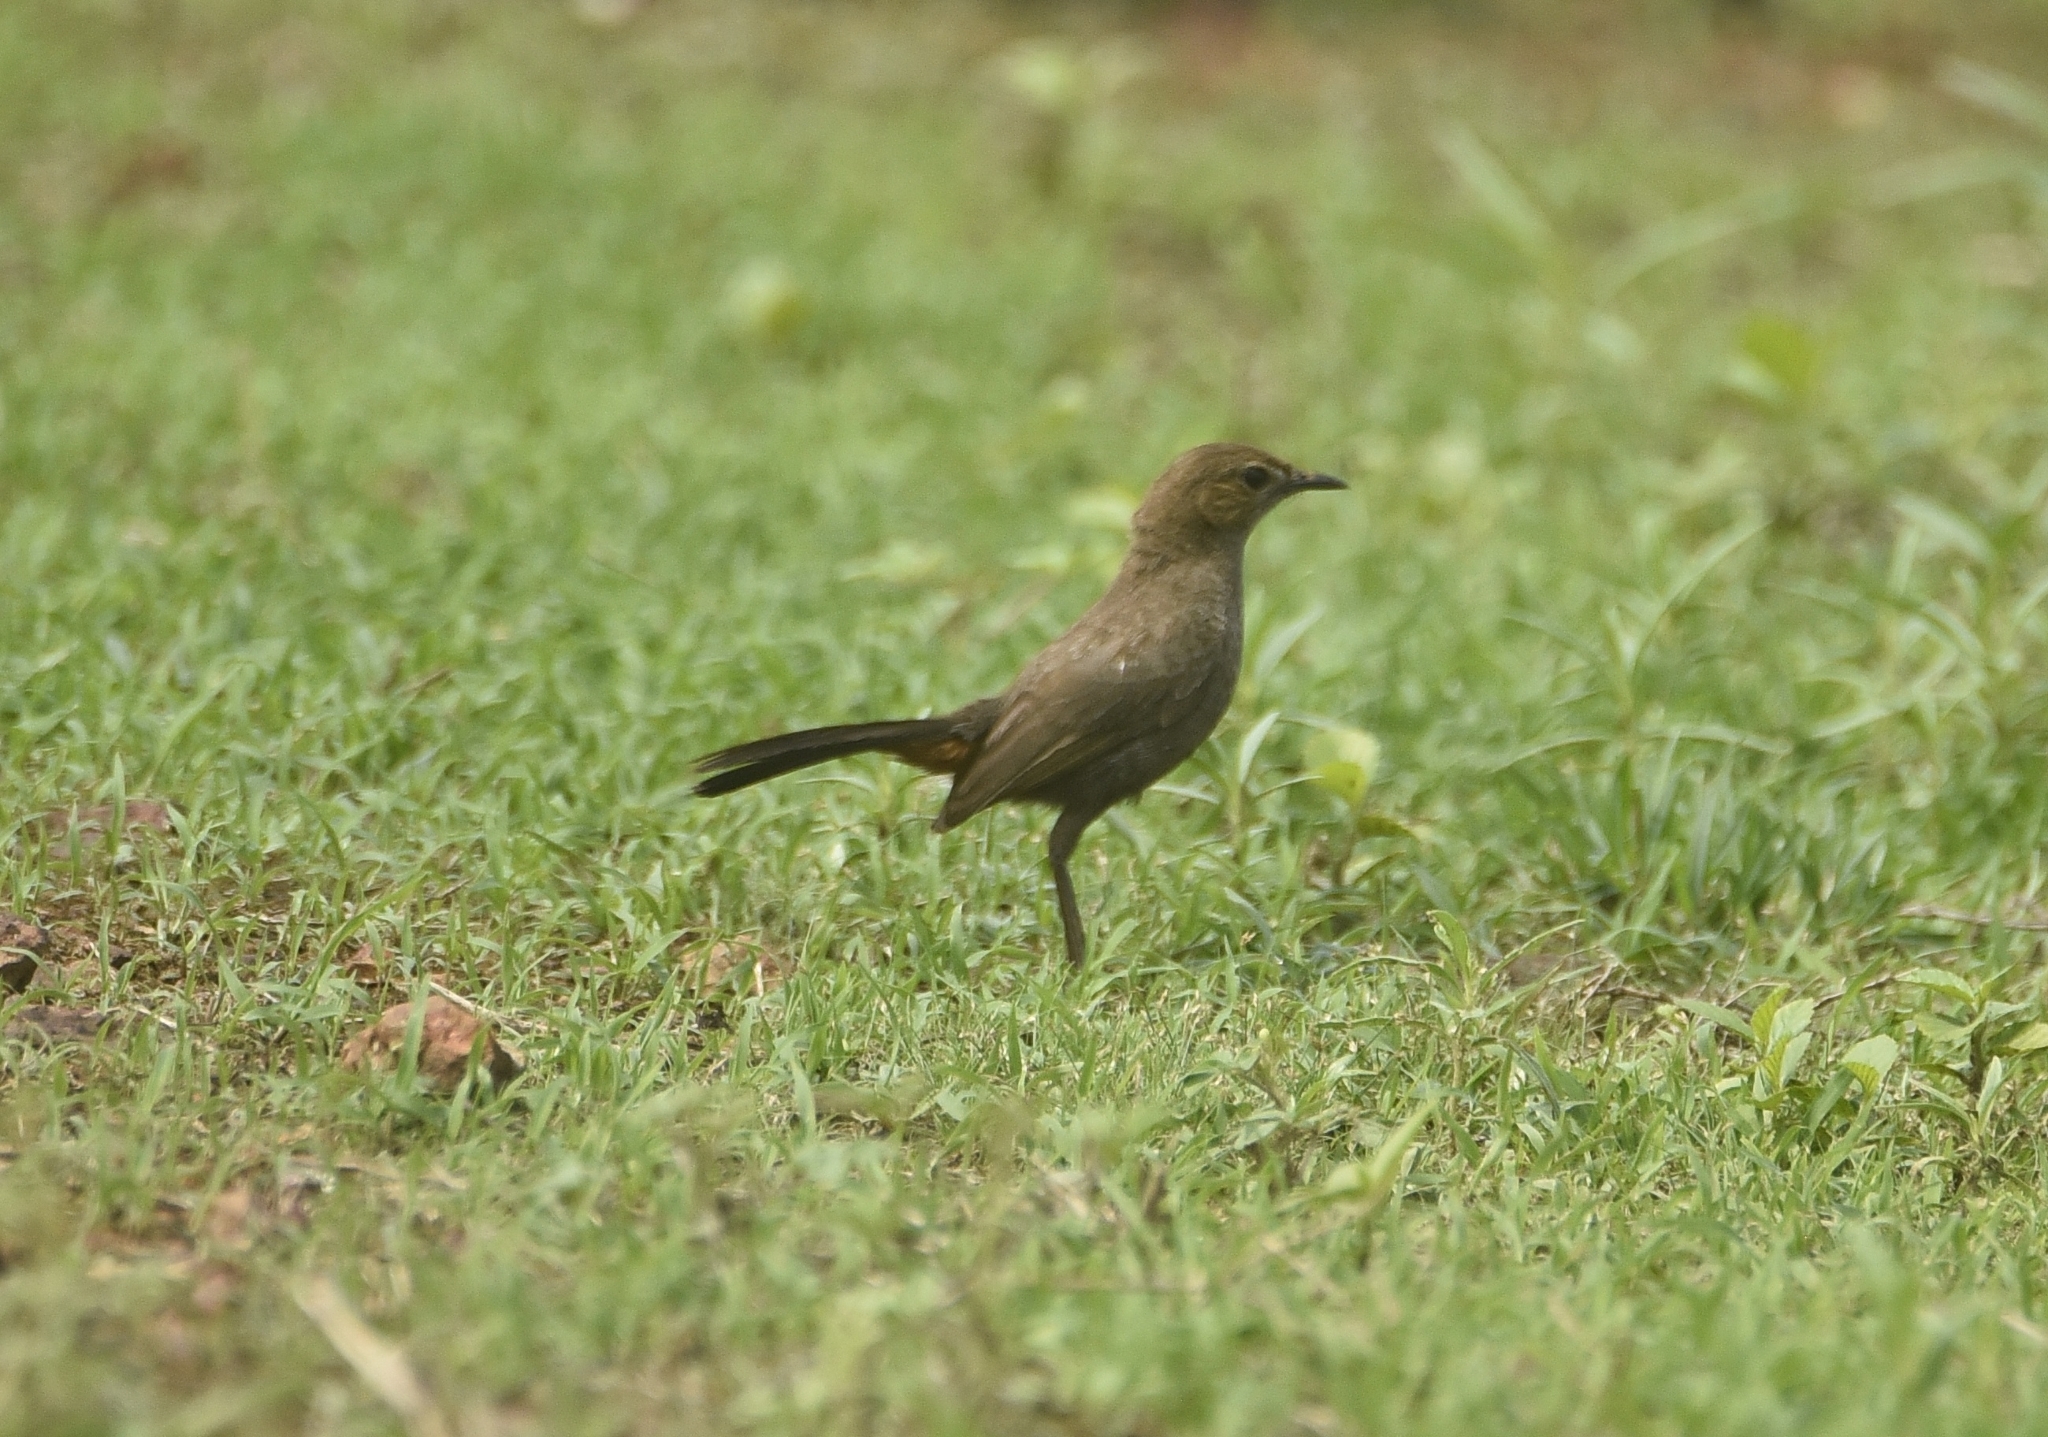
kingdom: Animalia
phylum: Chordata
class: Aves
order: Passeriformes
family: Muscicapidae
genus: Saxicoloides
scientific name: Saxicoloides fulicatus
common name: Indian robin
